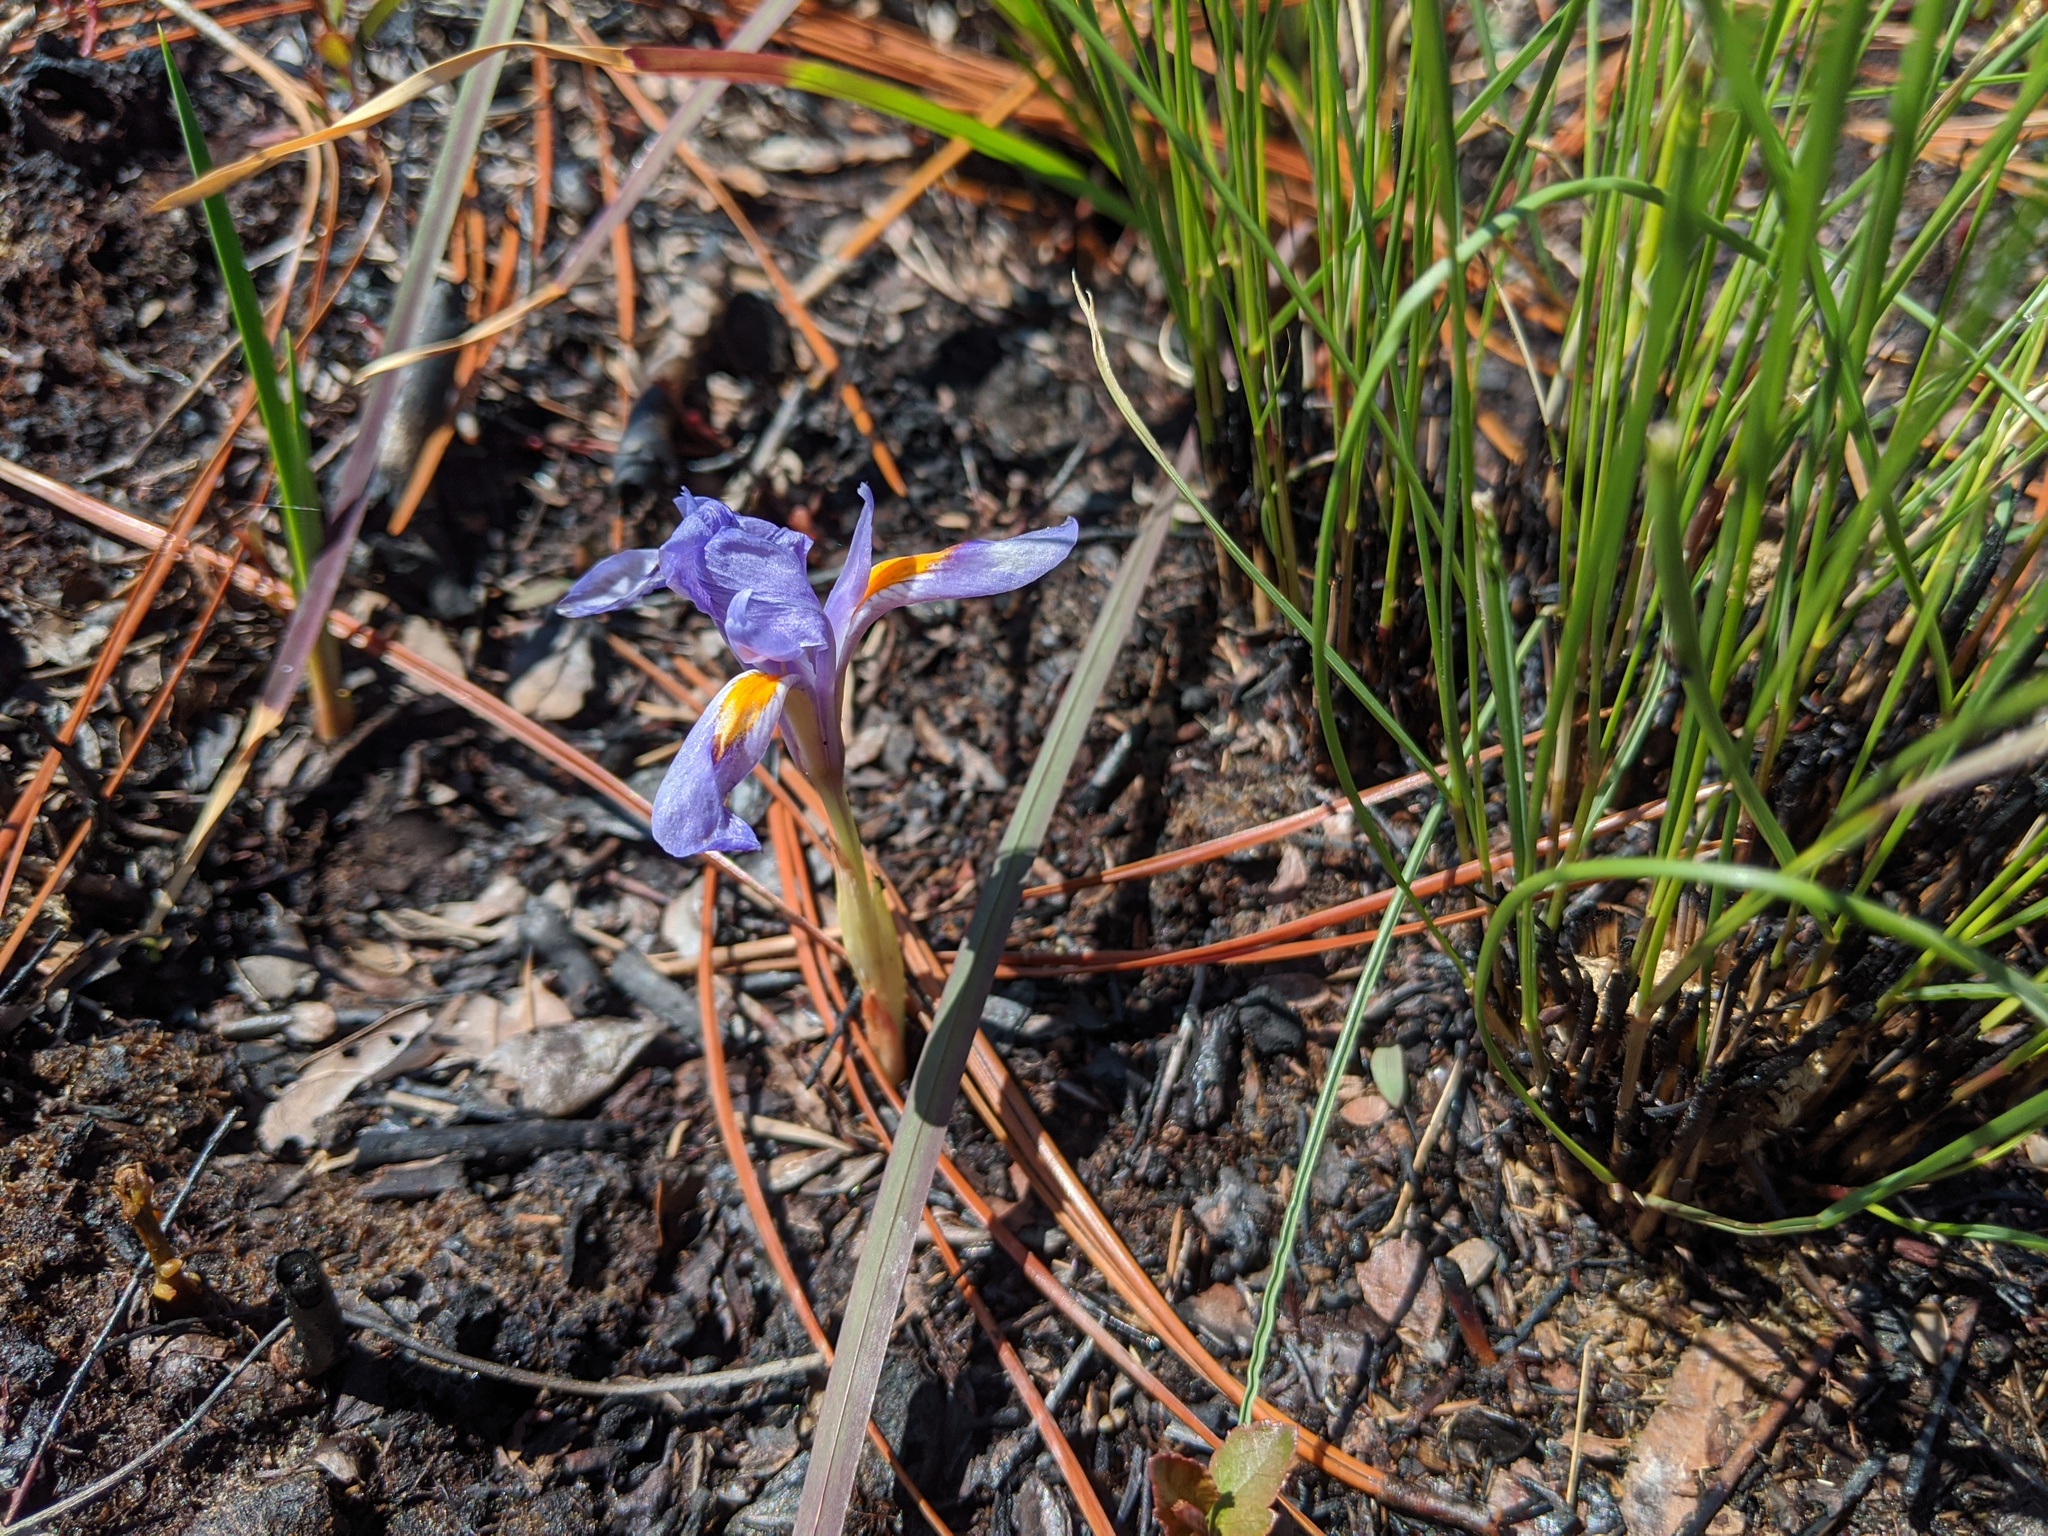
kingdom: Plantae
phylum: Tracheophyta
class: Liliopsida
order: Asparagales
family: Iridaceae
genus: Iris
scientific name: Iris verna
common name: Dwarf iris
